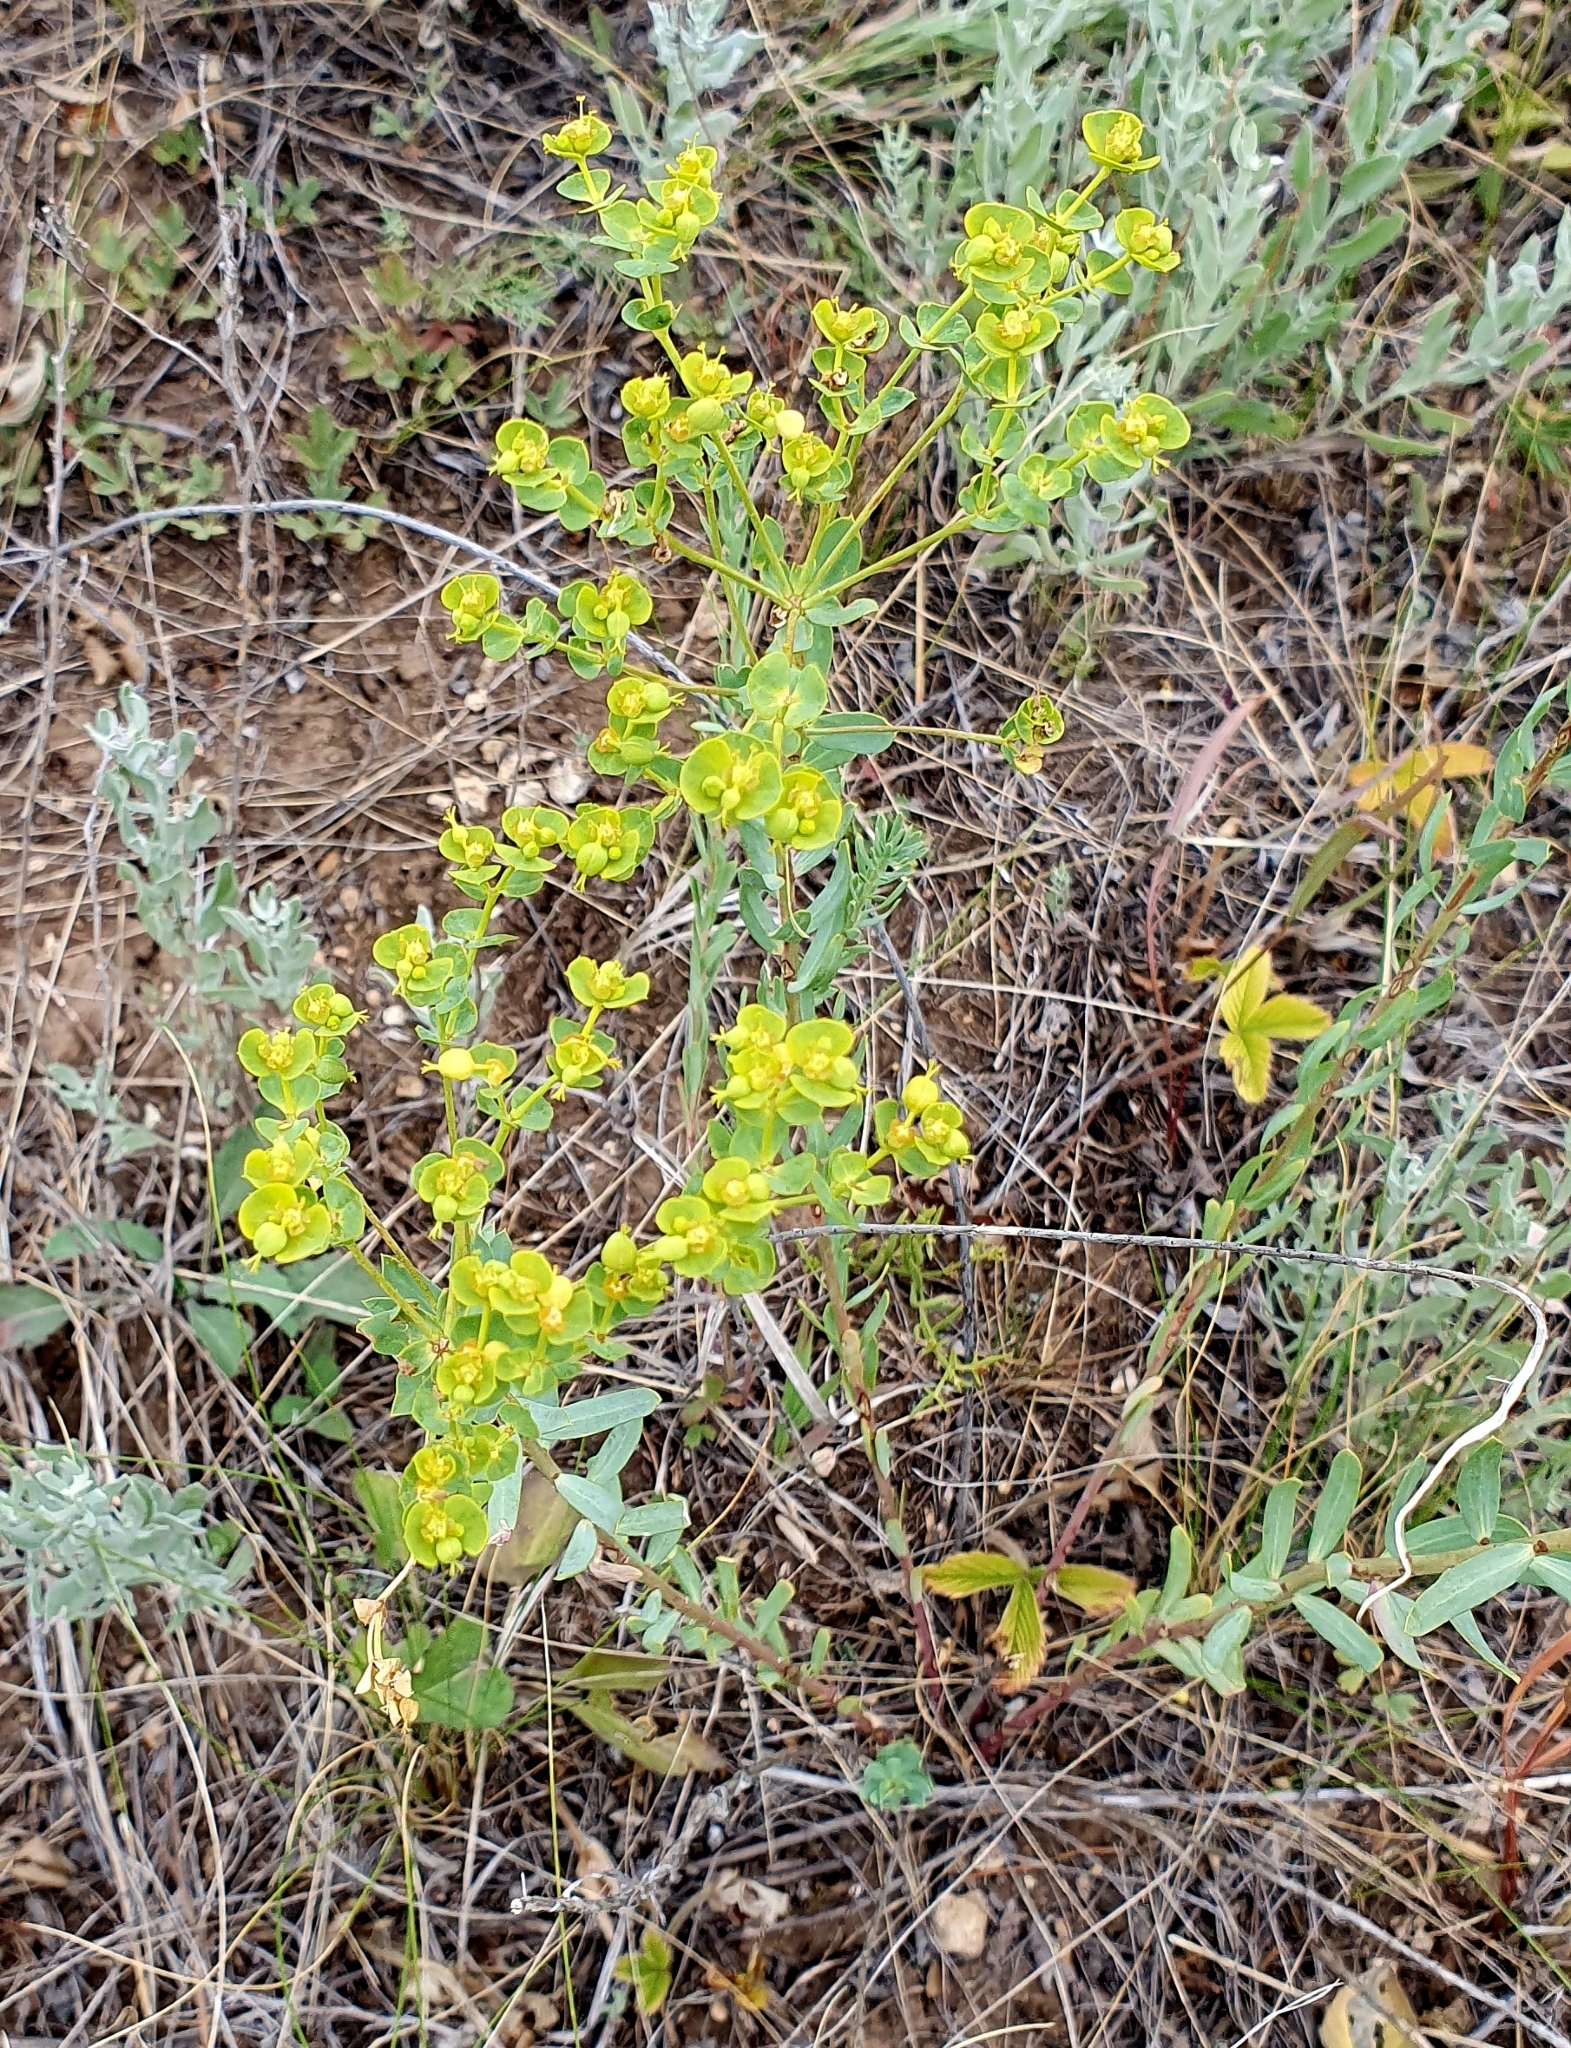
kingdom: Plantae
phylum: Tracheophyta
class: Magnoliopsida
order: Malpighiales
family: Euphorbiaceae
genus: Euphorbia
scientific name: Euphorbia seguieriana
